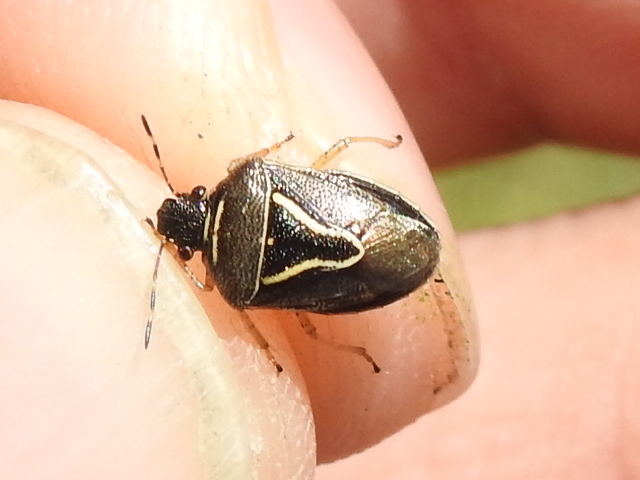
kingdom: Animalia
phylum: Arthropoda
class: Insecta
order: Hemiptera
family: Pentatomidae
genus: Mormidea
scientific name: Mormidea lugens
